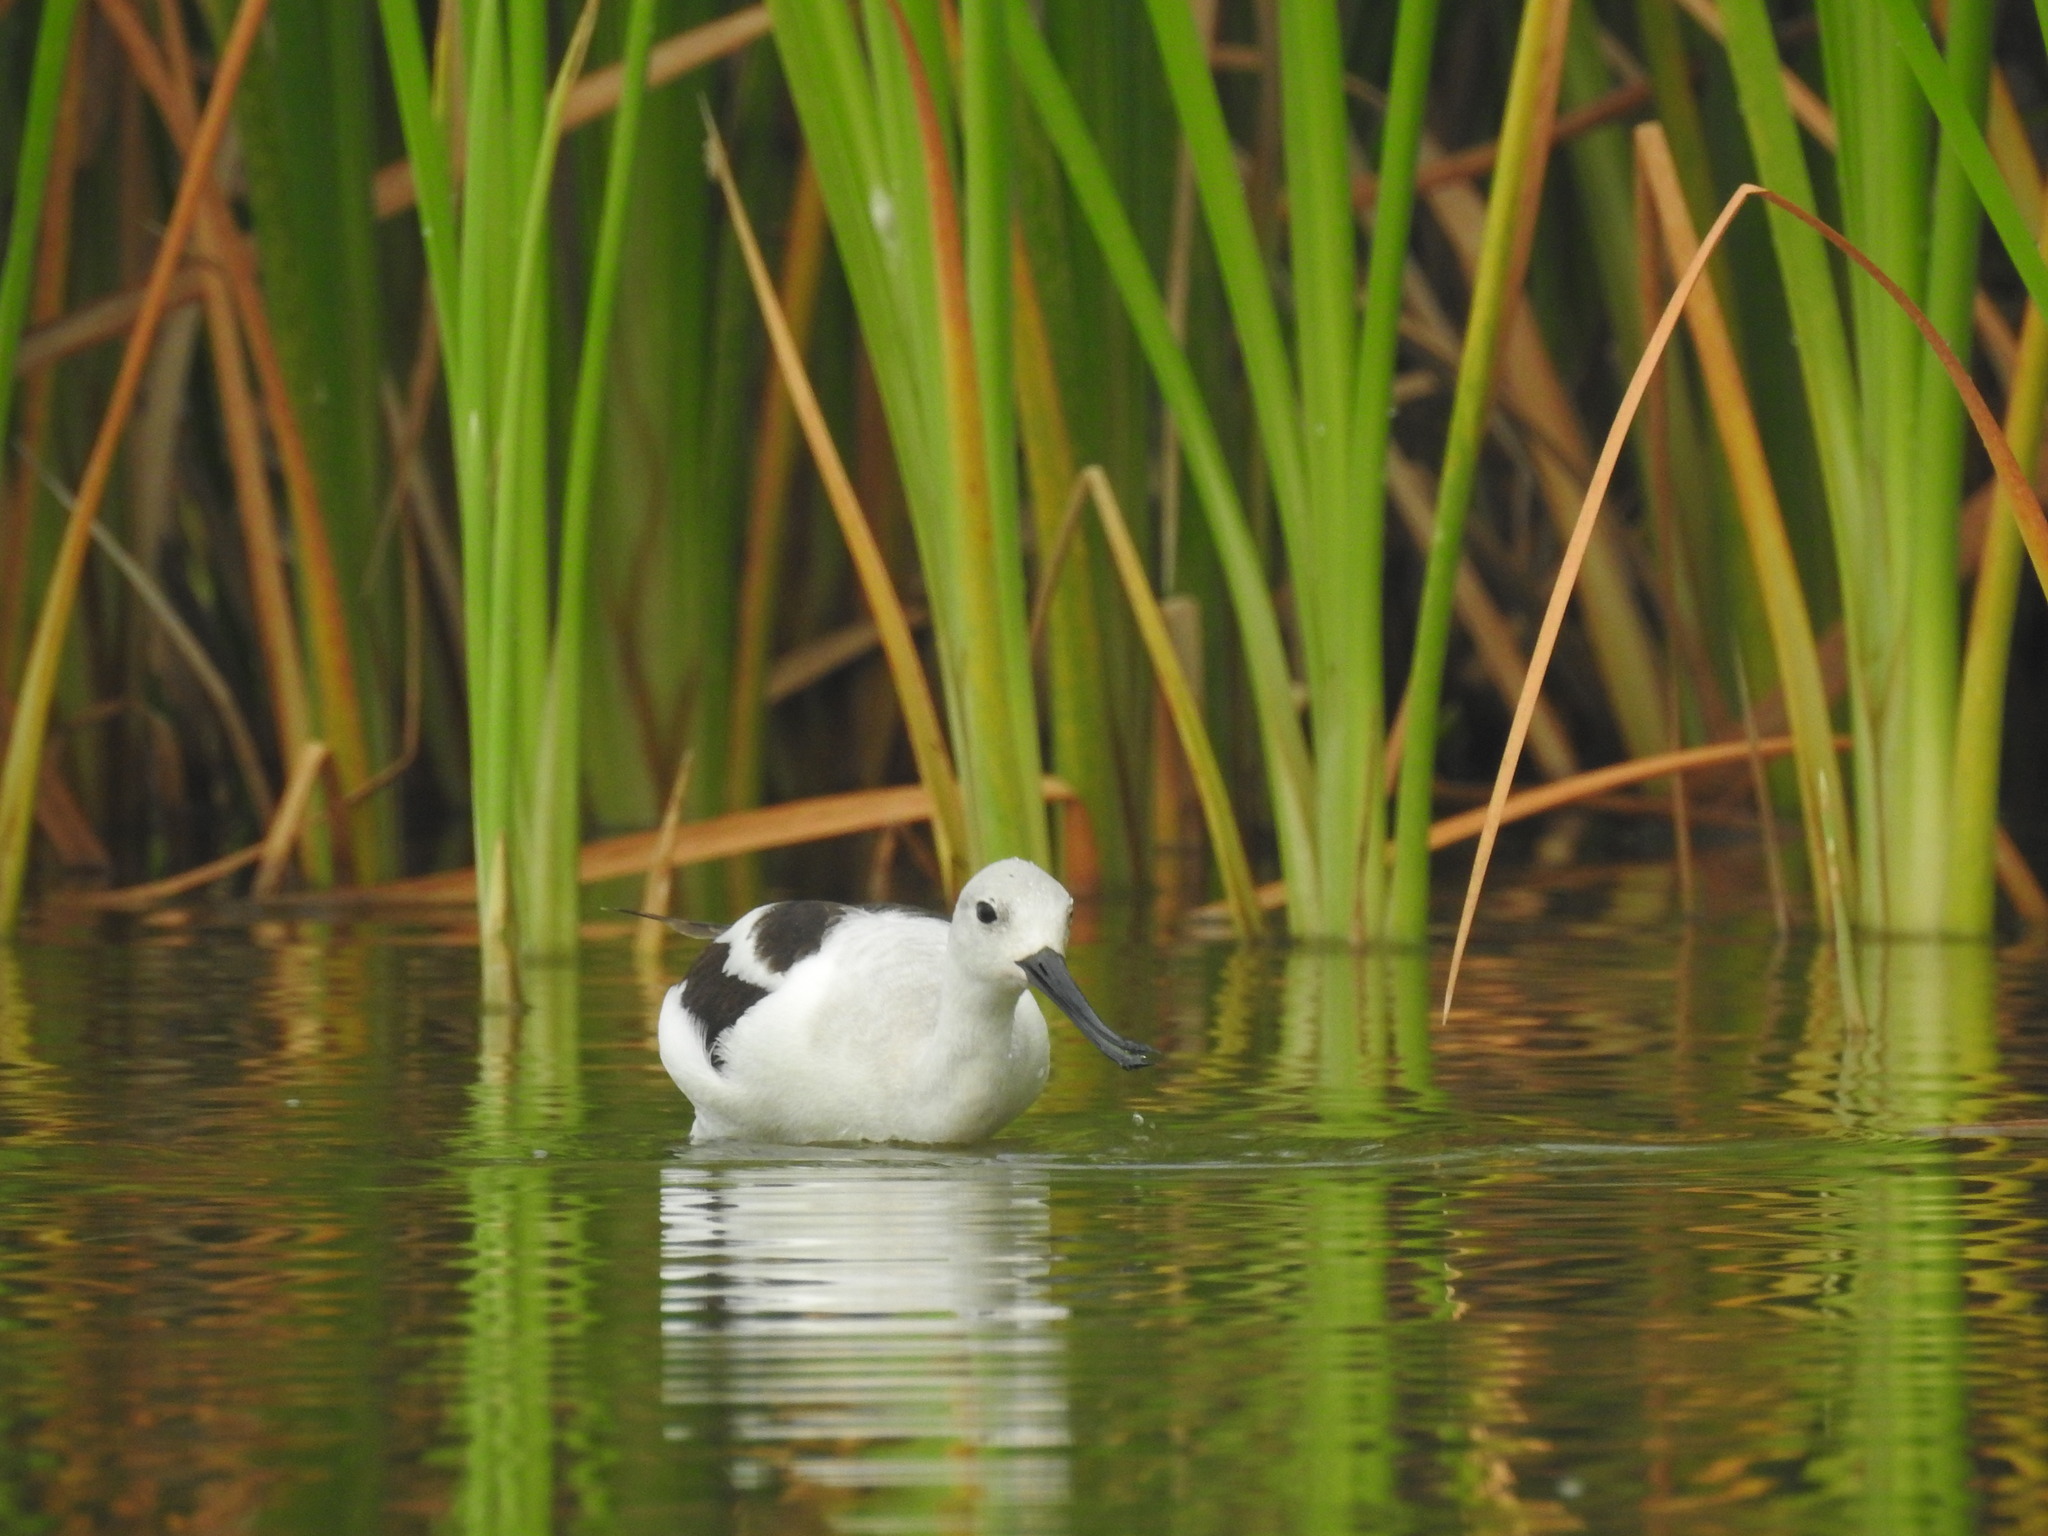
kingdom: Animalia
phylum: Chordata
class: Aves
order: Charadriiformes
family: Recurvirostridae
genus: Recurvirostra
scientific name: Recurvirostra americana
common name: American avocet
